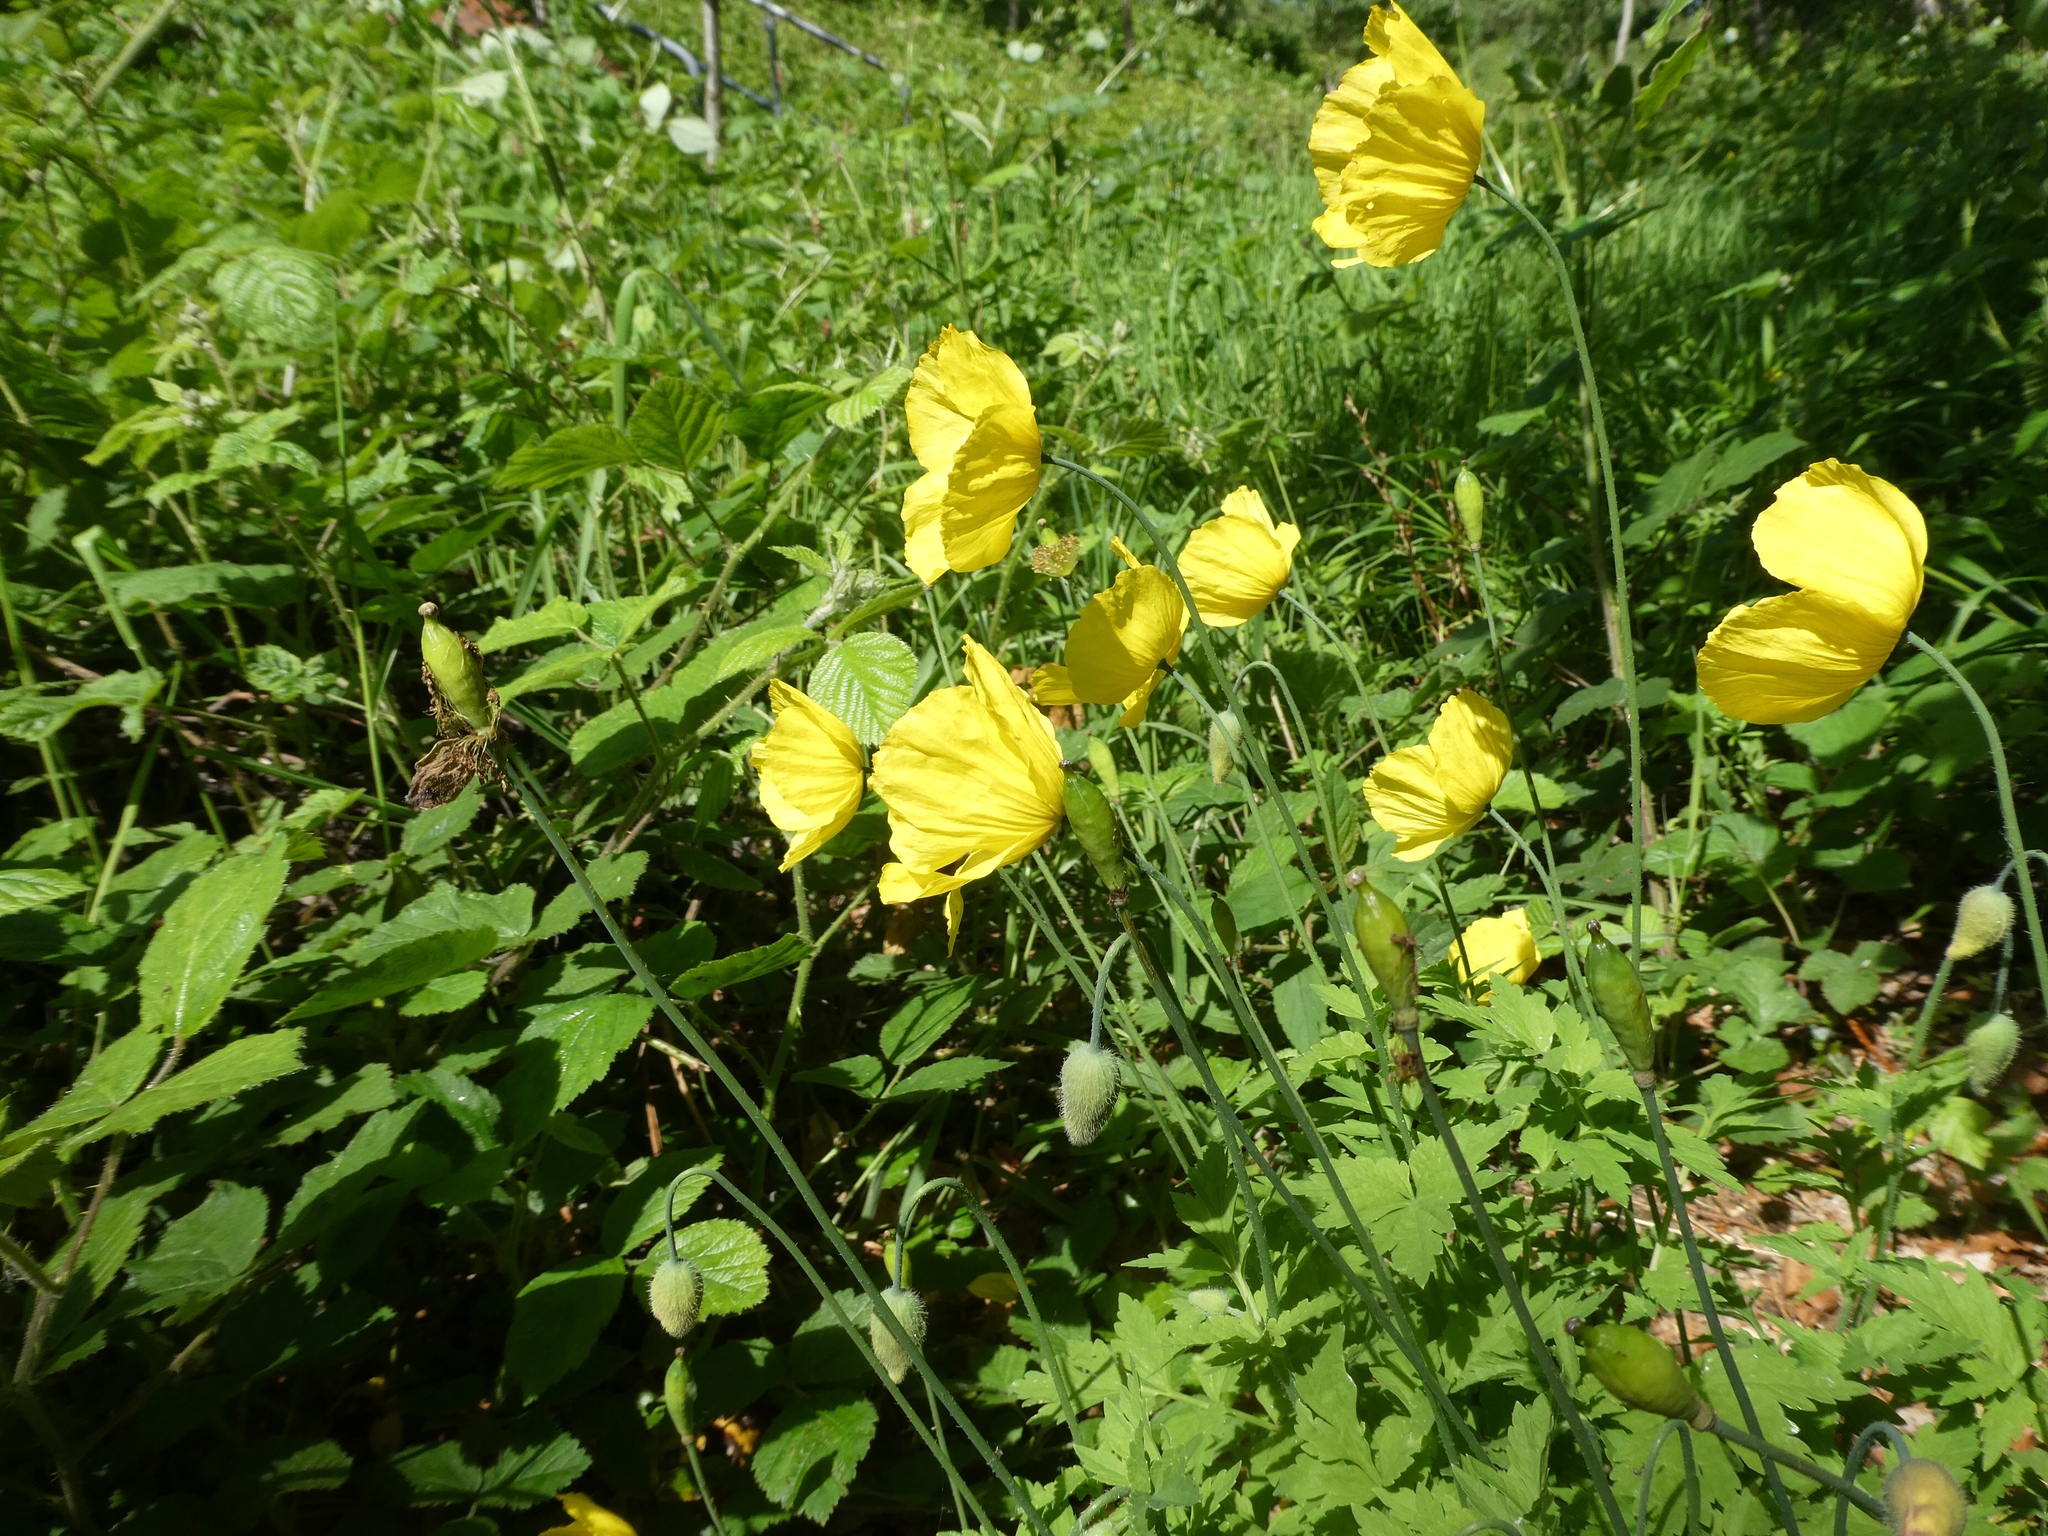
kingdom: Plantae
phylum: Tracheophyta
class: Magnoliopsida
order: Ranunculales
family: Papaveraceae
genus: Papaver
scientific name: Papaver cambricum
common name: Poppy
